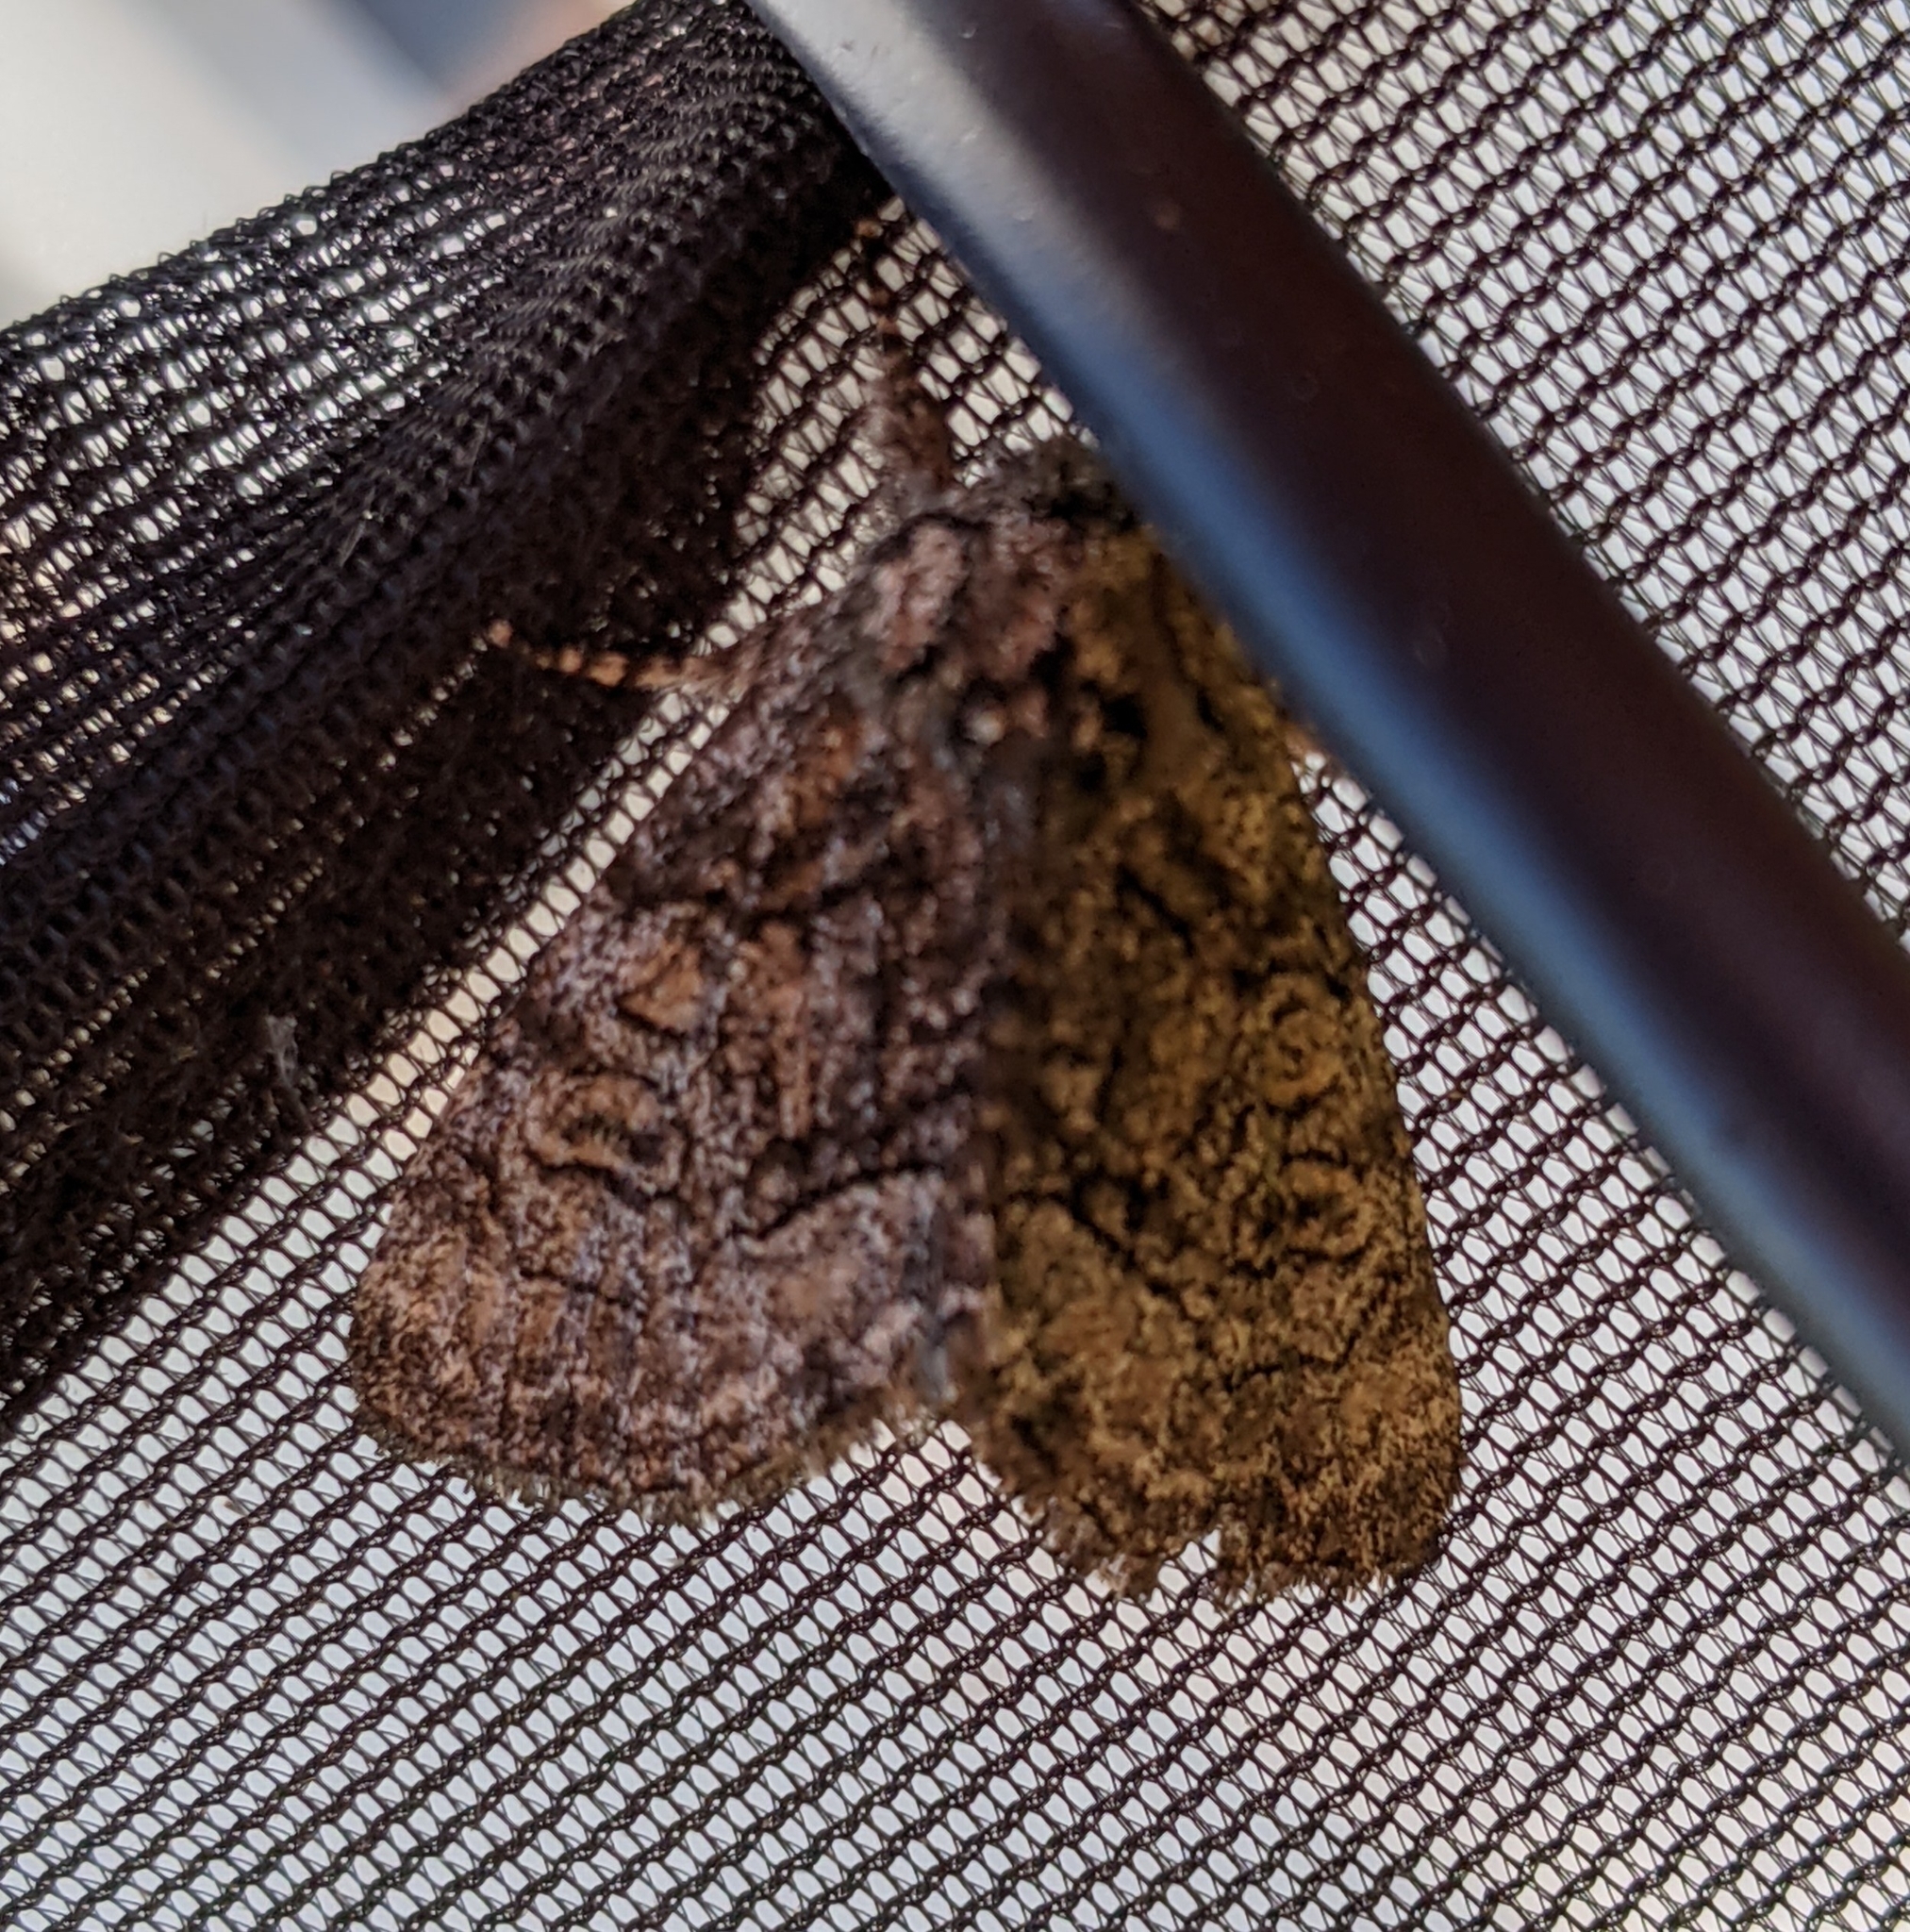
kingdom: Animalia
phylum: Arthropoda
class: Insecta
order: Lepidoptera
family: Noctuidae
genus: Raphia
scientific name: Raphia frater
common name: Brother
